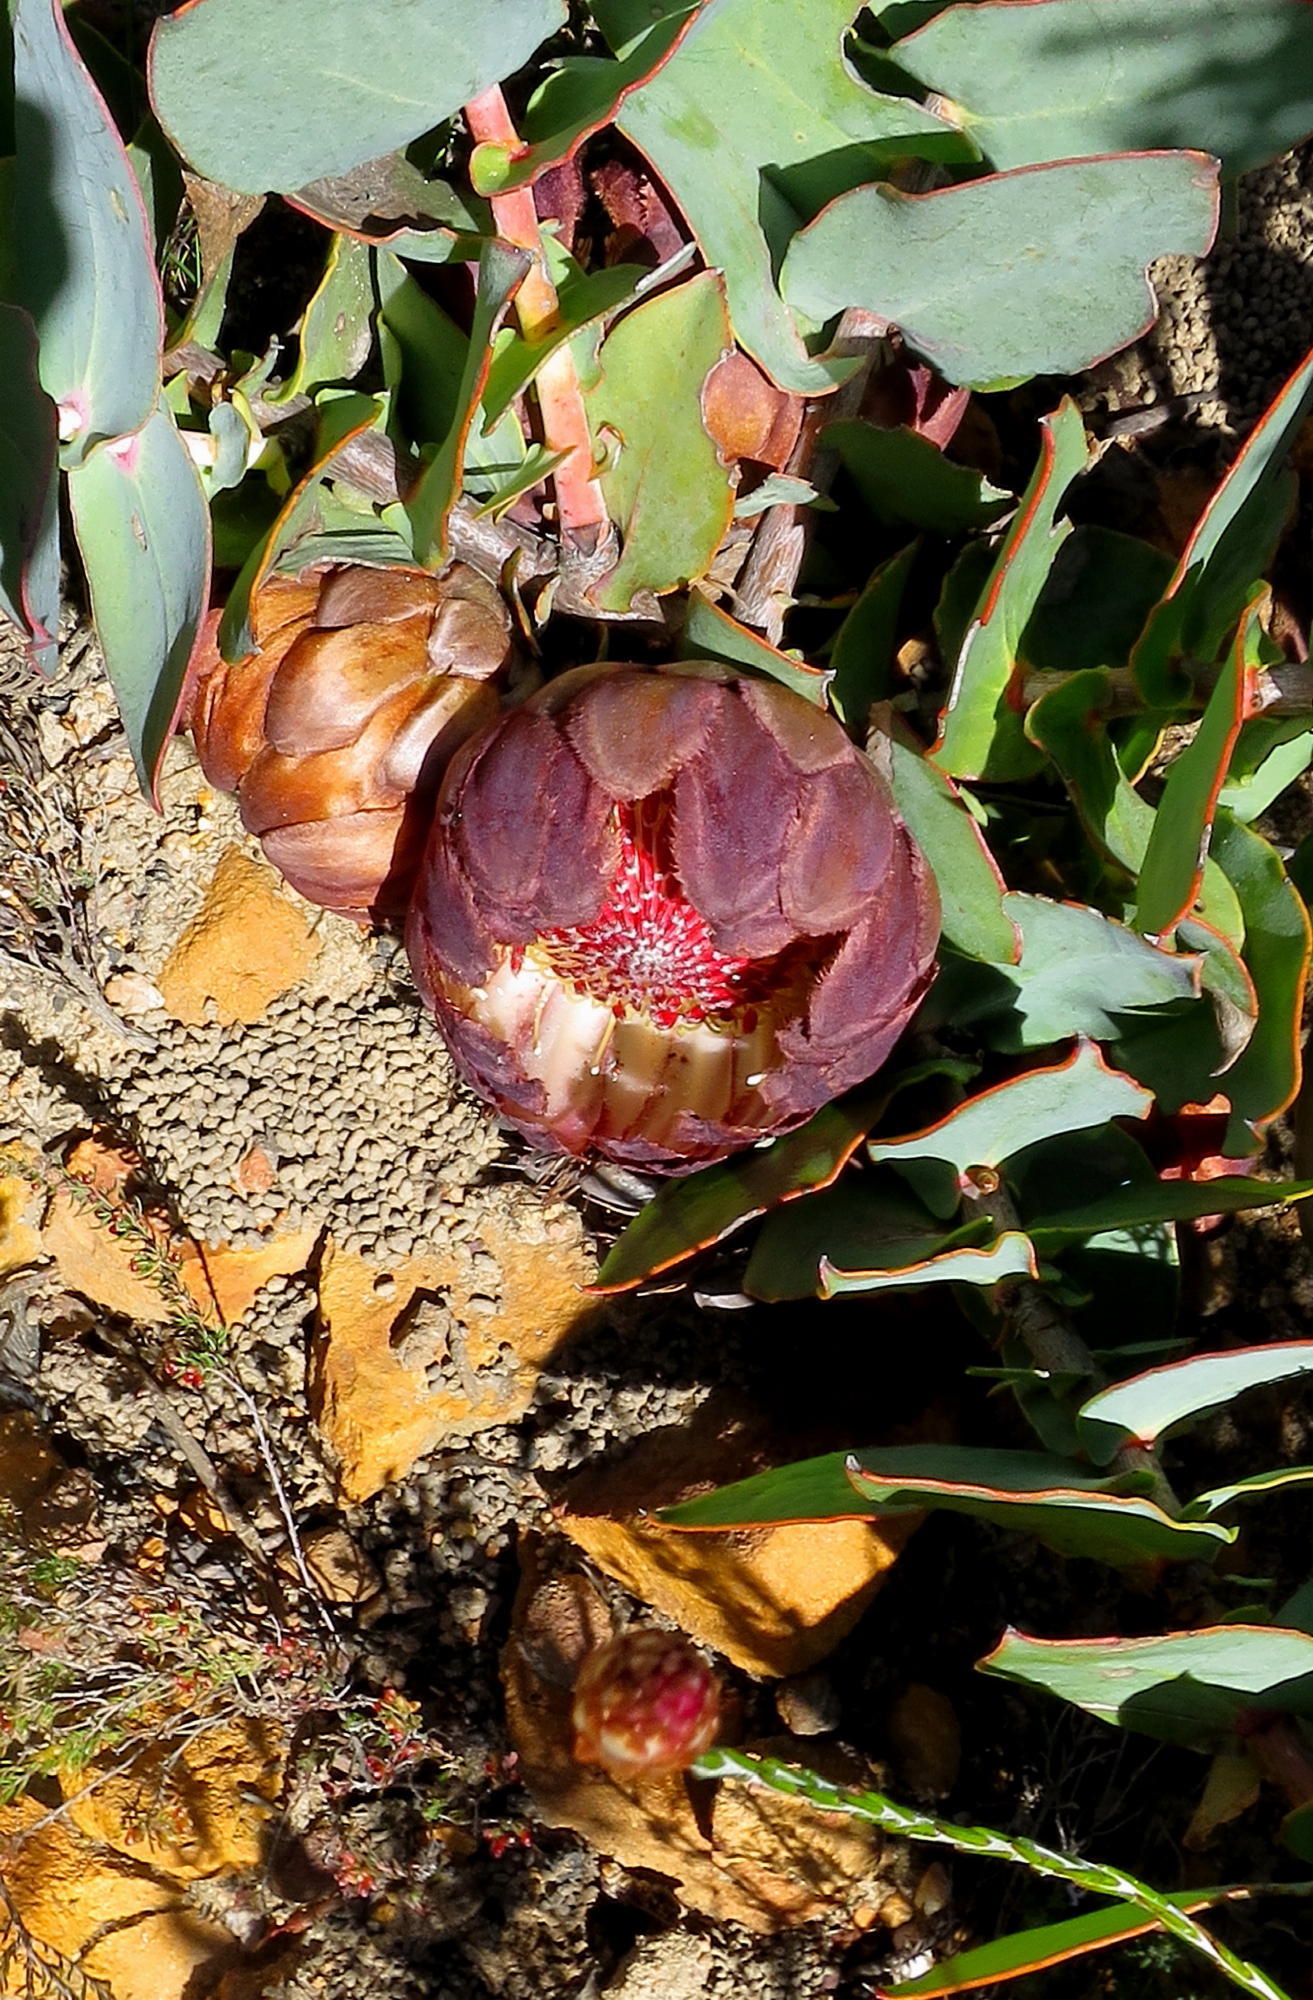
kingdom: Plantae
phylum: Tracheophyta
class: Magnoliopsida
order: Proteales
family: Proteaceae
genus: Protea
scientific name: Protea amplexicaulis
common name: Clasping-leaf sugarbush
